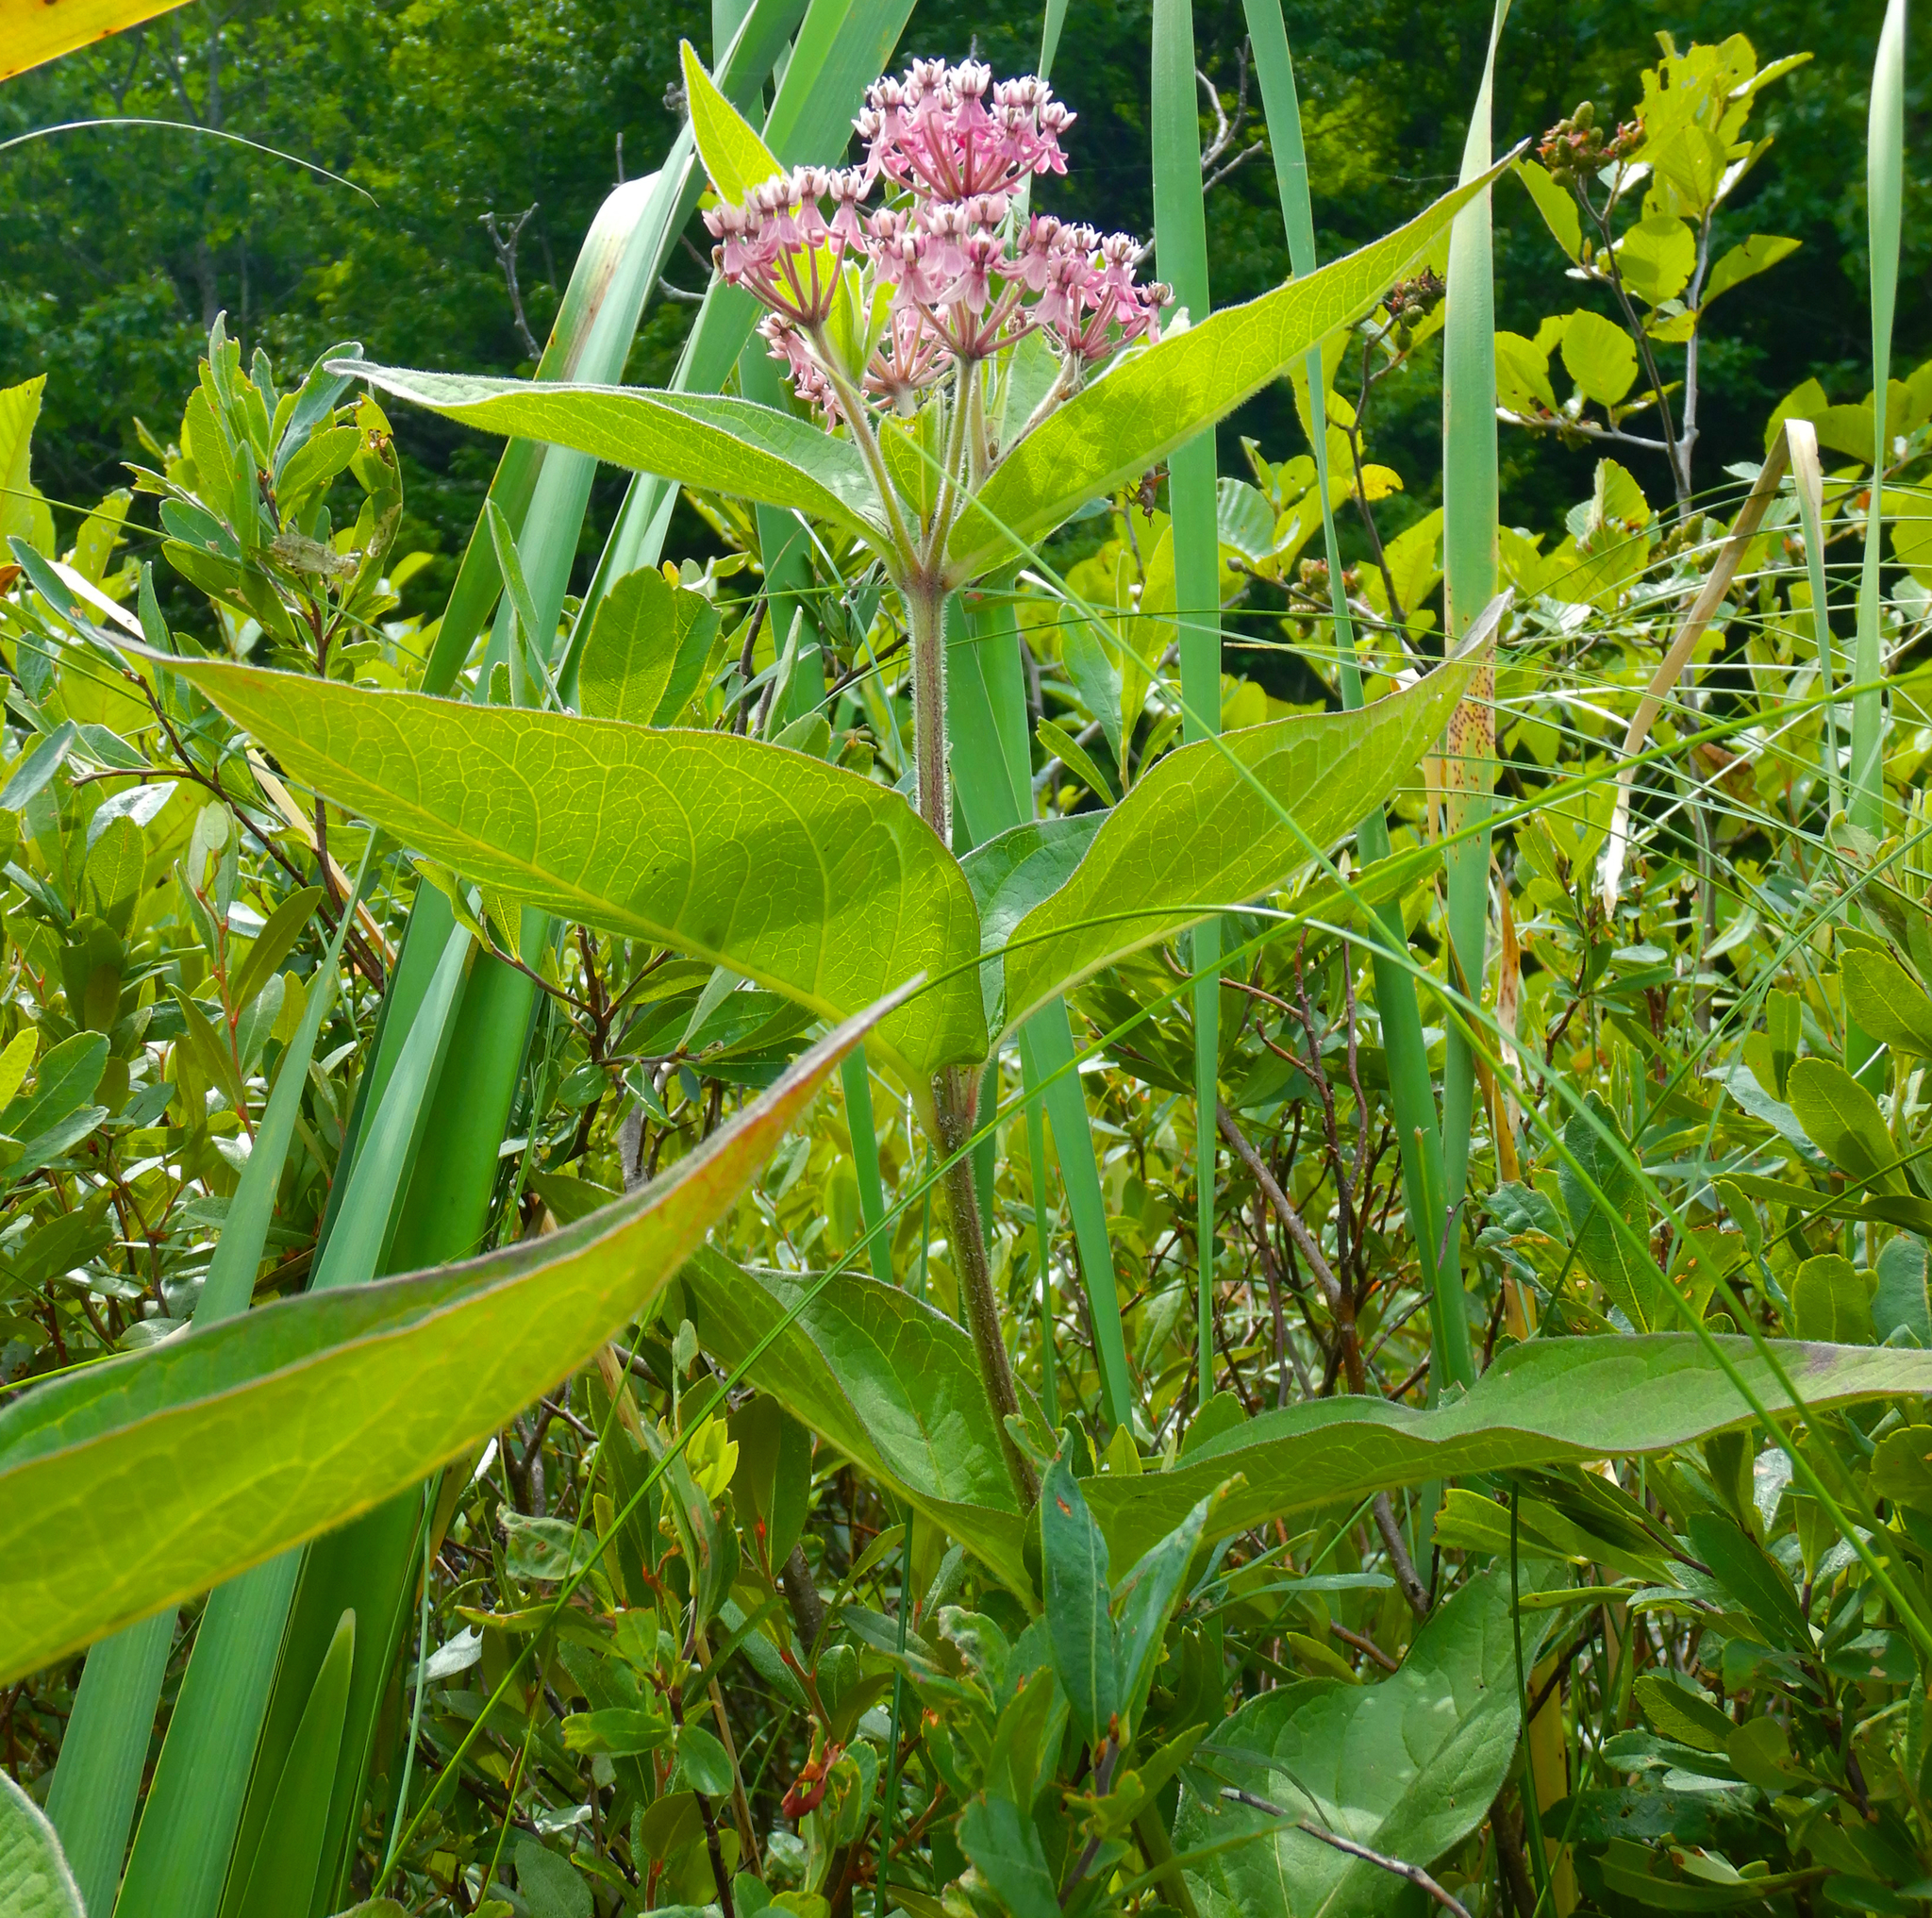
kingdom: Plantae
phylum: Tracheophyta
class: Magnoliopsida
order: Gentianales
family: Apocynaceae
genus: Asclepias
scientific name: Asclepias incarnata
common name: Swamp milkweed
